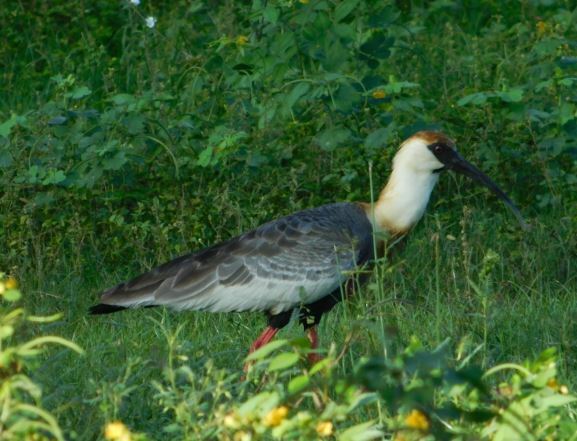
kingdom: Animalia
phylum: Chordata
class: Aves
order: Pelecaniformes
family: Threskiornithidae
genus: Theristicus
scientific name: Theristicus caudatus
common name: Buff-necked ibis
